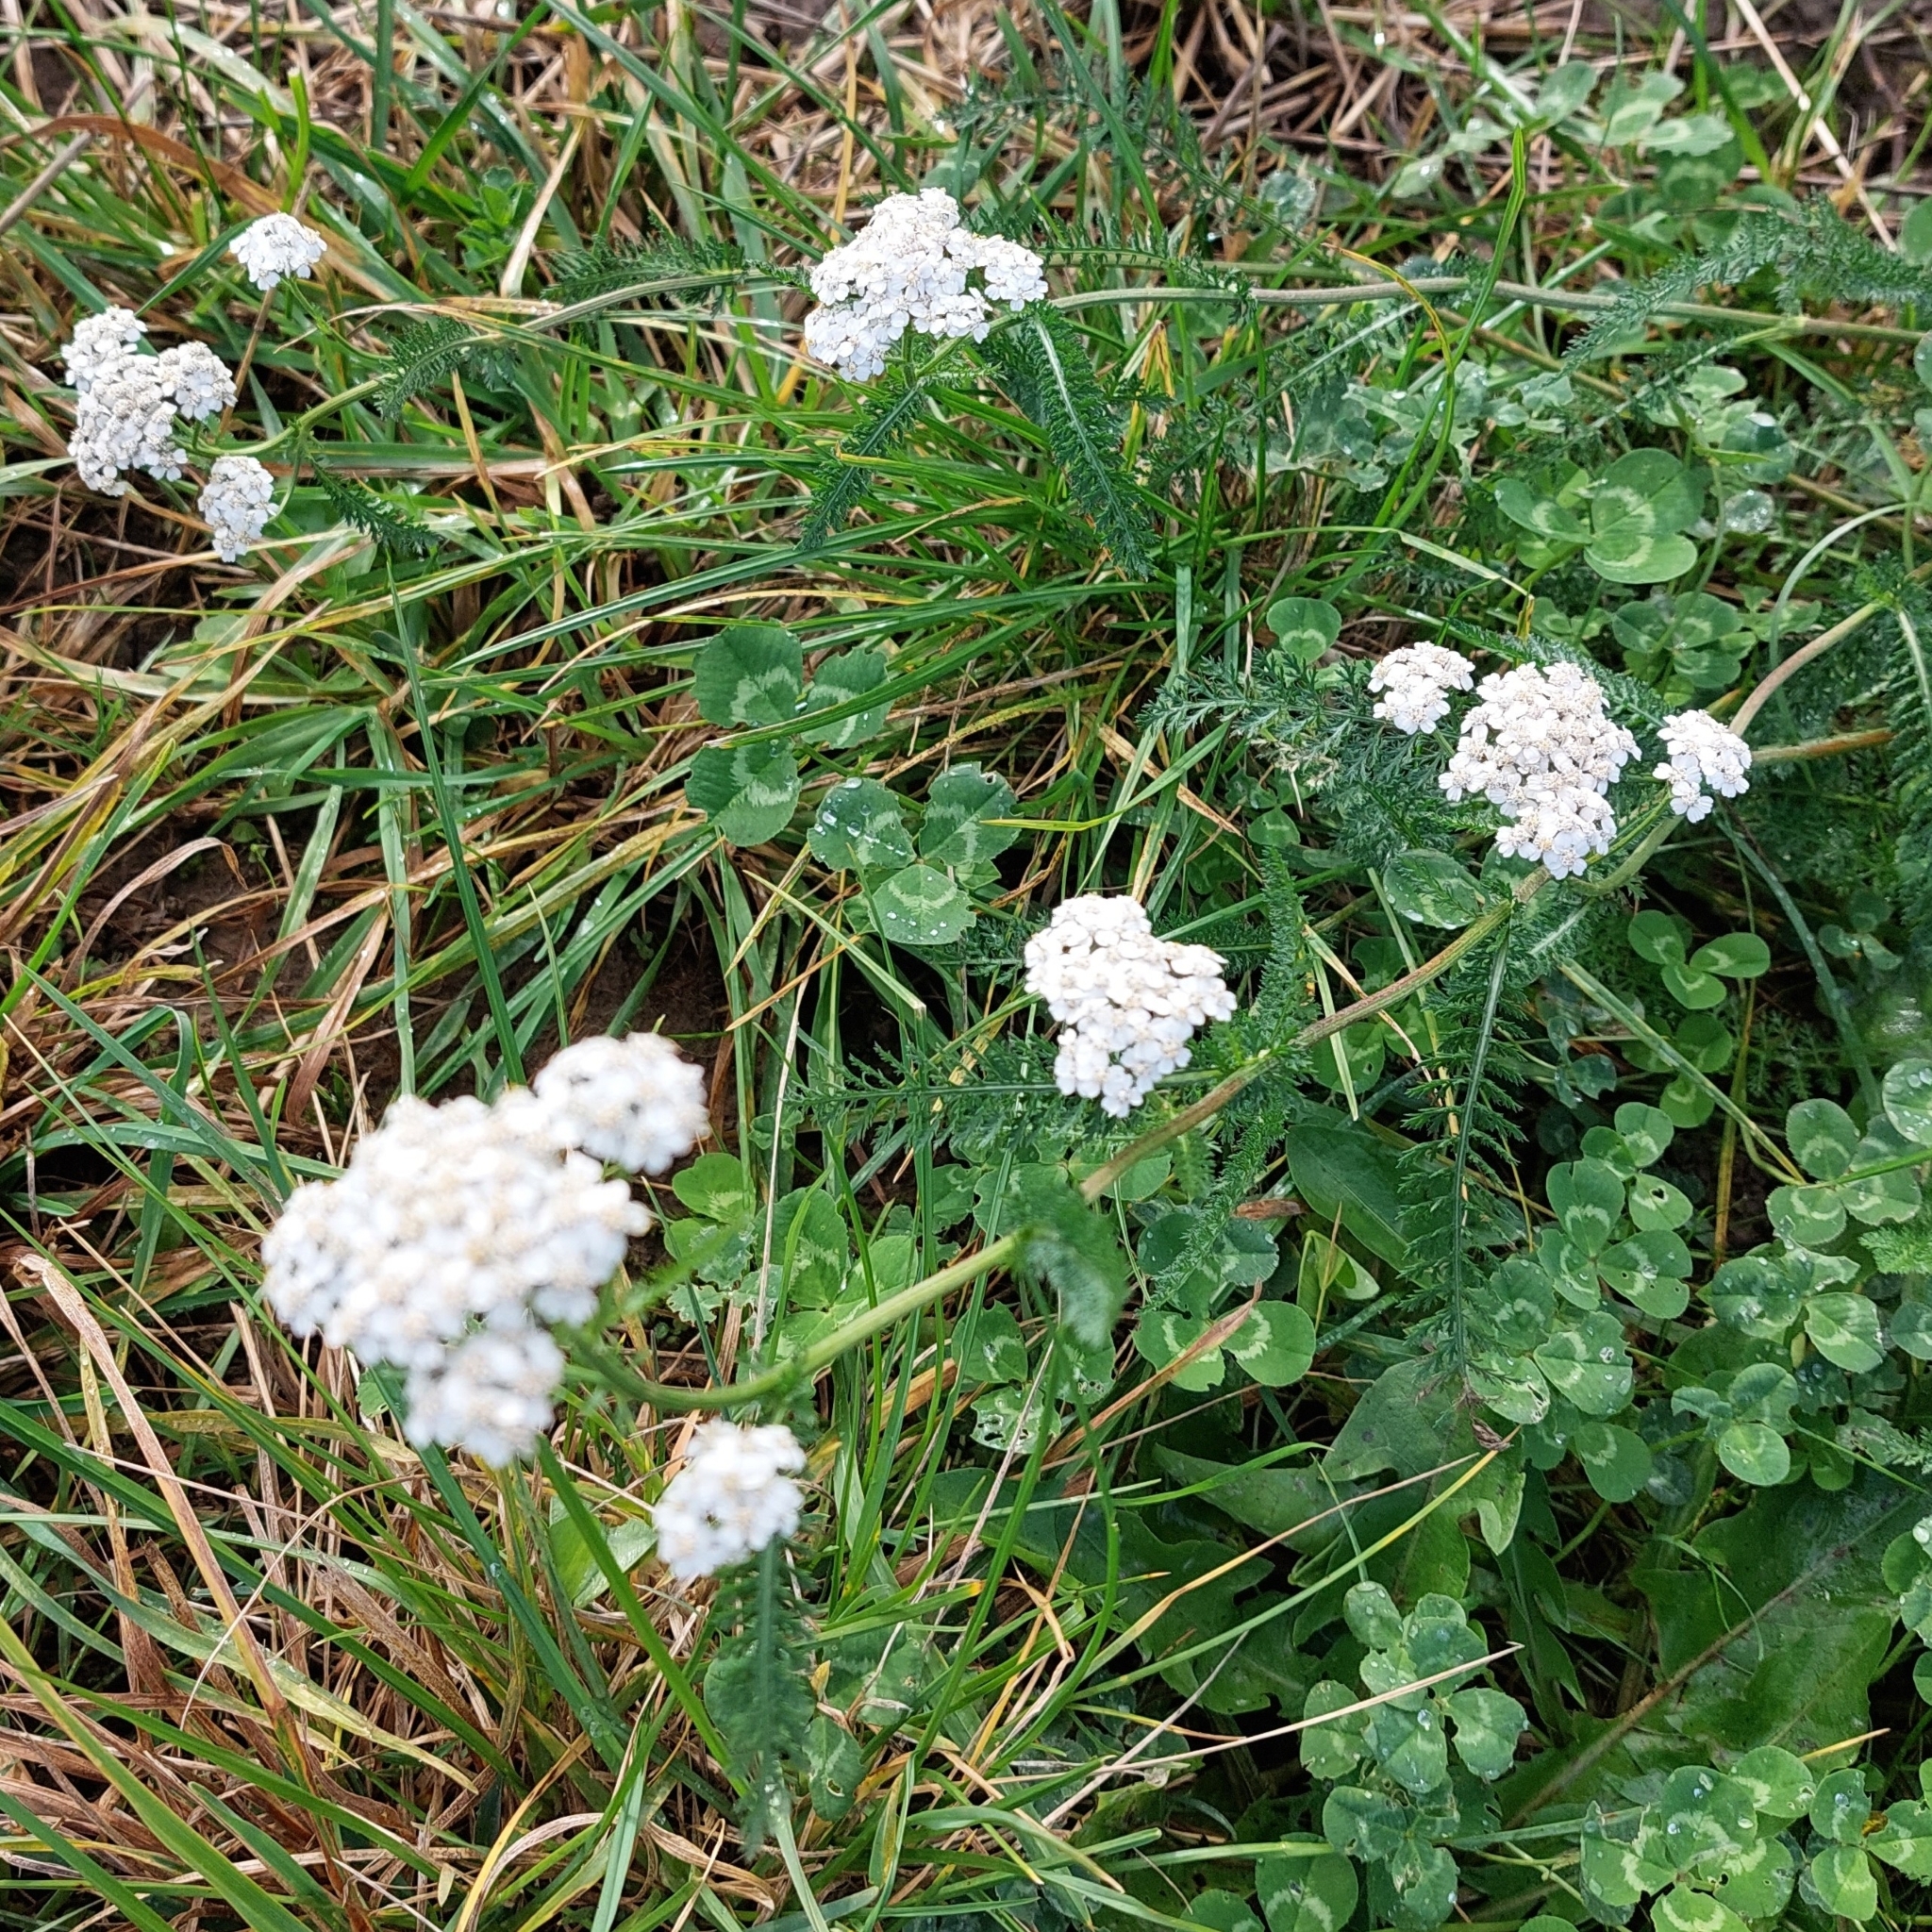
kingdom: Plantae
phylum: Tracheophyta
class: Magnoliopsida
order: Asterales
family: Asteraceae
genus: Achillea
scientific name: Achillea millefolium
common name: Yarrow
